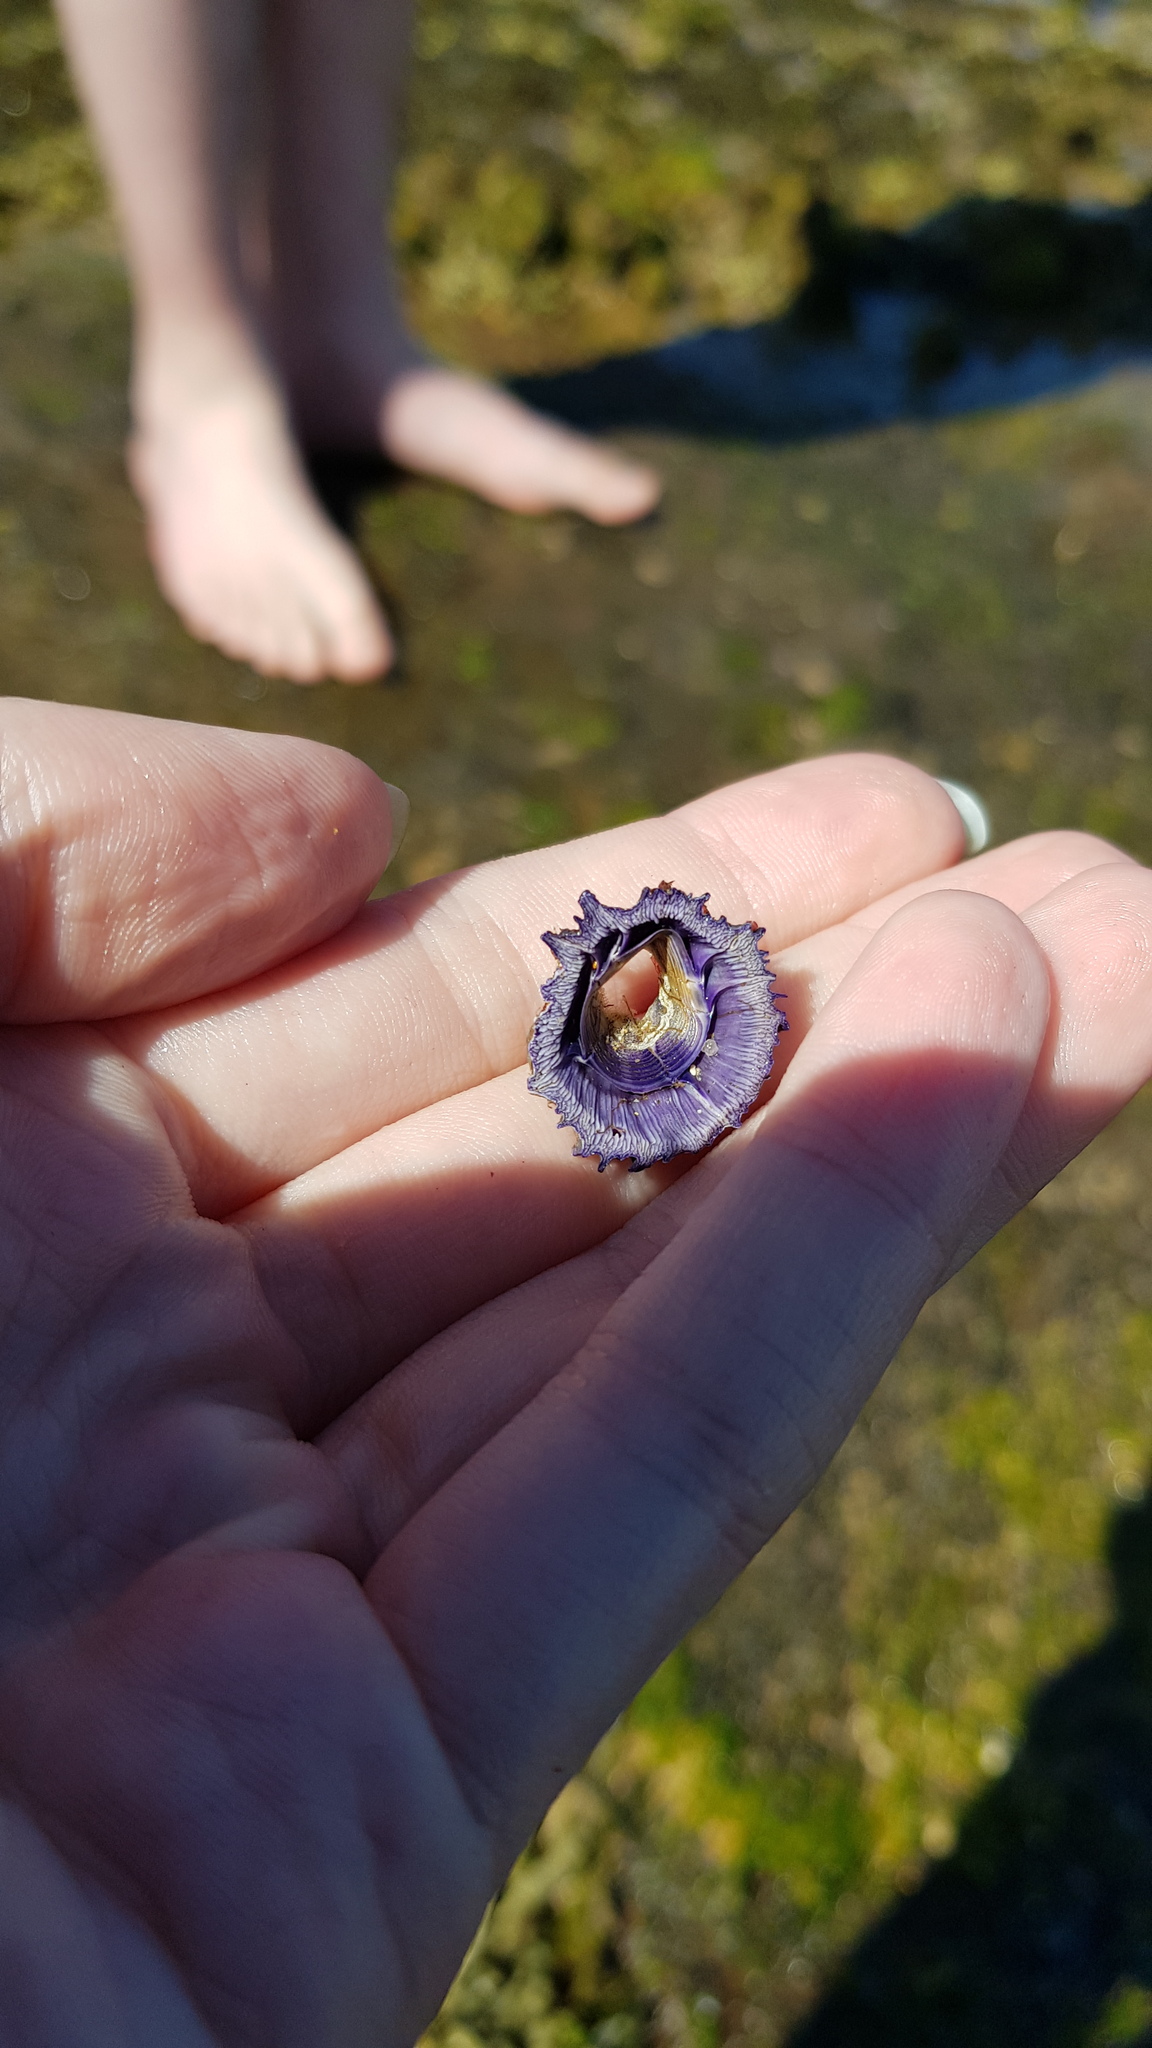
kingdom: Animalia
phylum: Arthropoda
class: Maxillopoda
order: Sessilia
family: Austrobalanidae
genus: Austrobalanus
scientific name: Austrobalanus imperator
